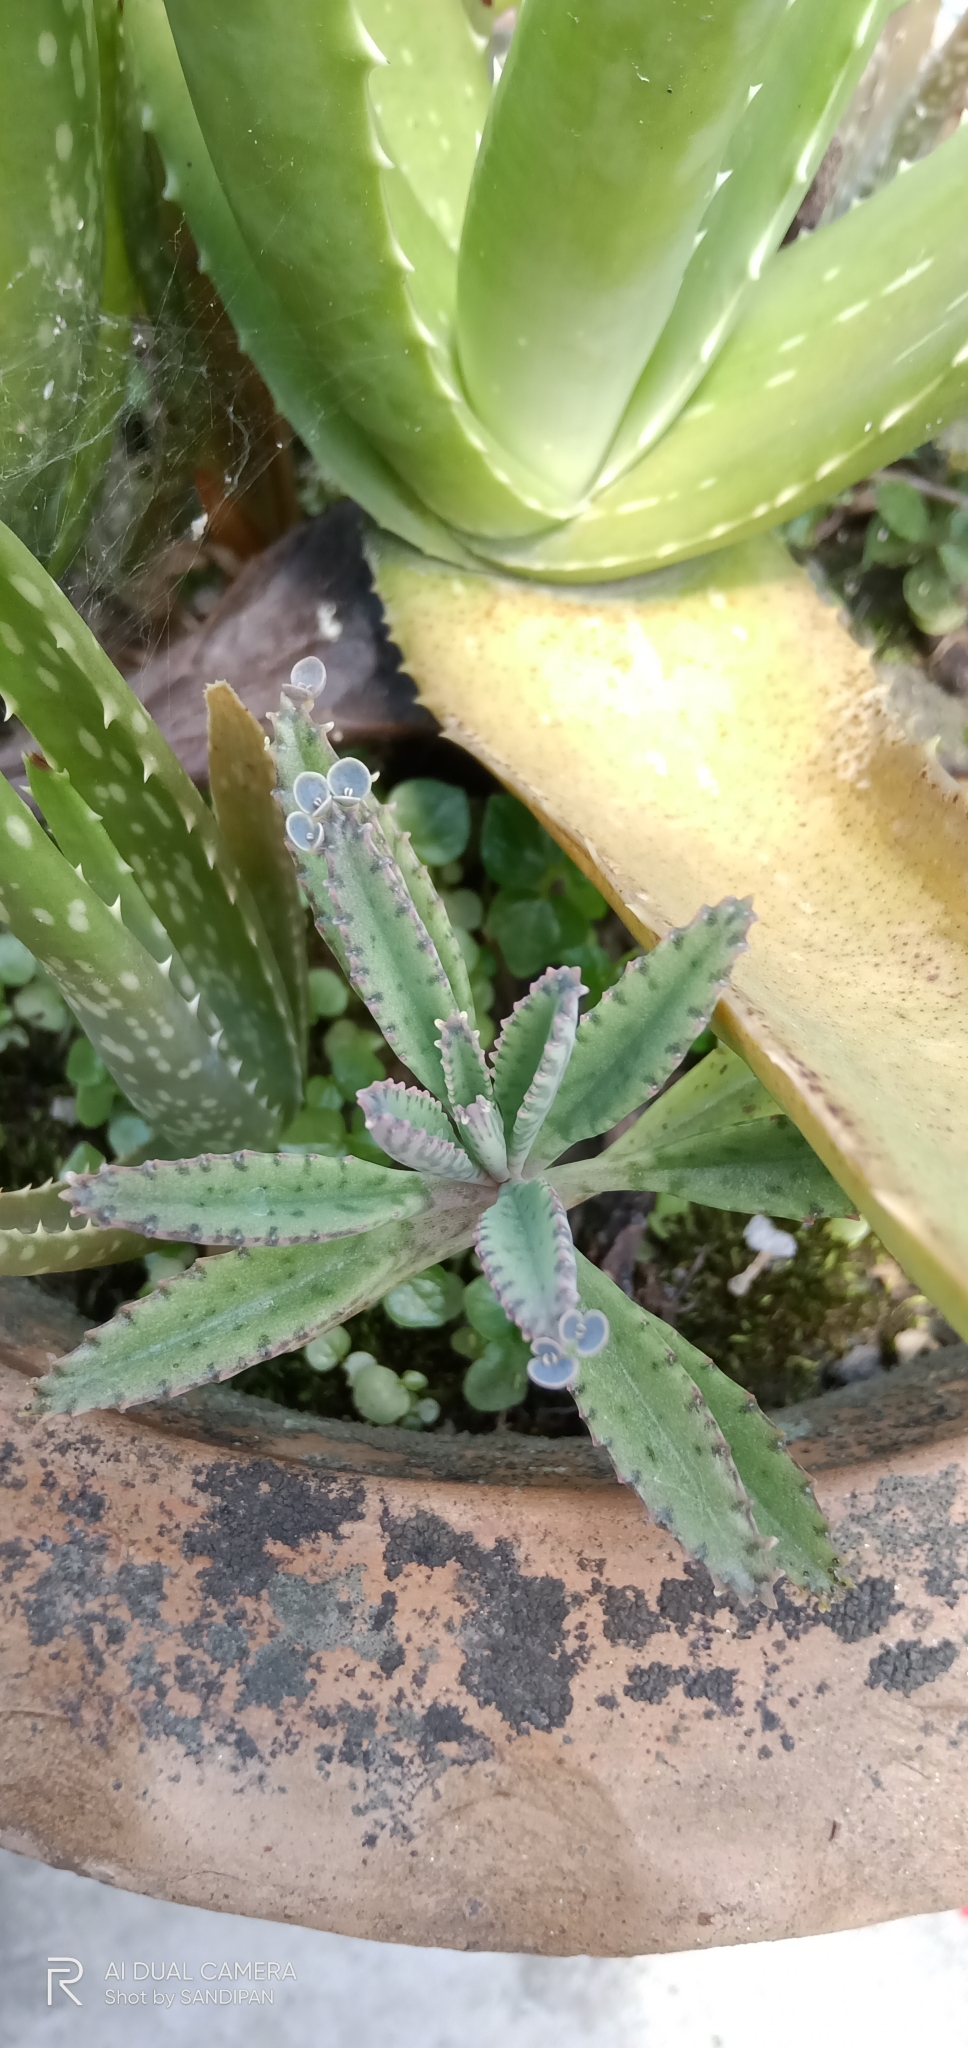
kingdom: Plantae
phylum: Tracheophyta
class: Magnoliopsida
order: Saxifragales
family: Crassulaceae
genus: Kalanchoe
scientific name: Kalanchoe houghtonii
